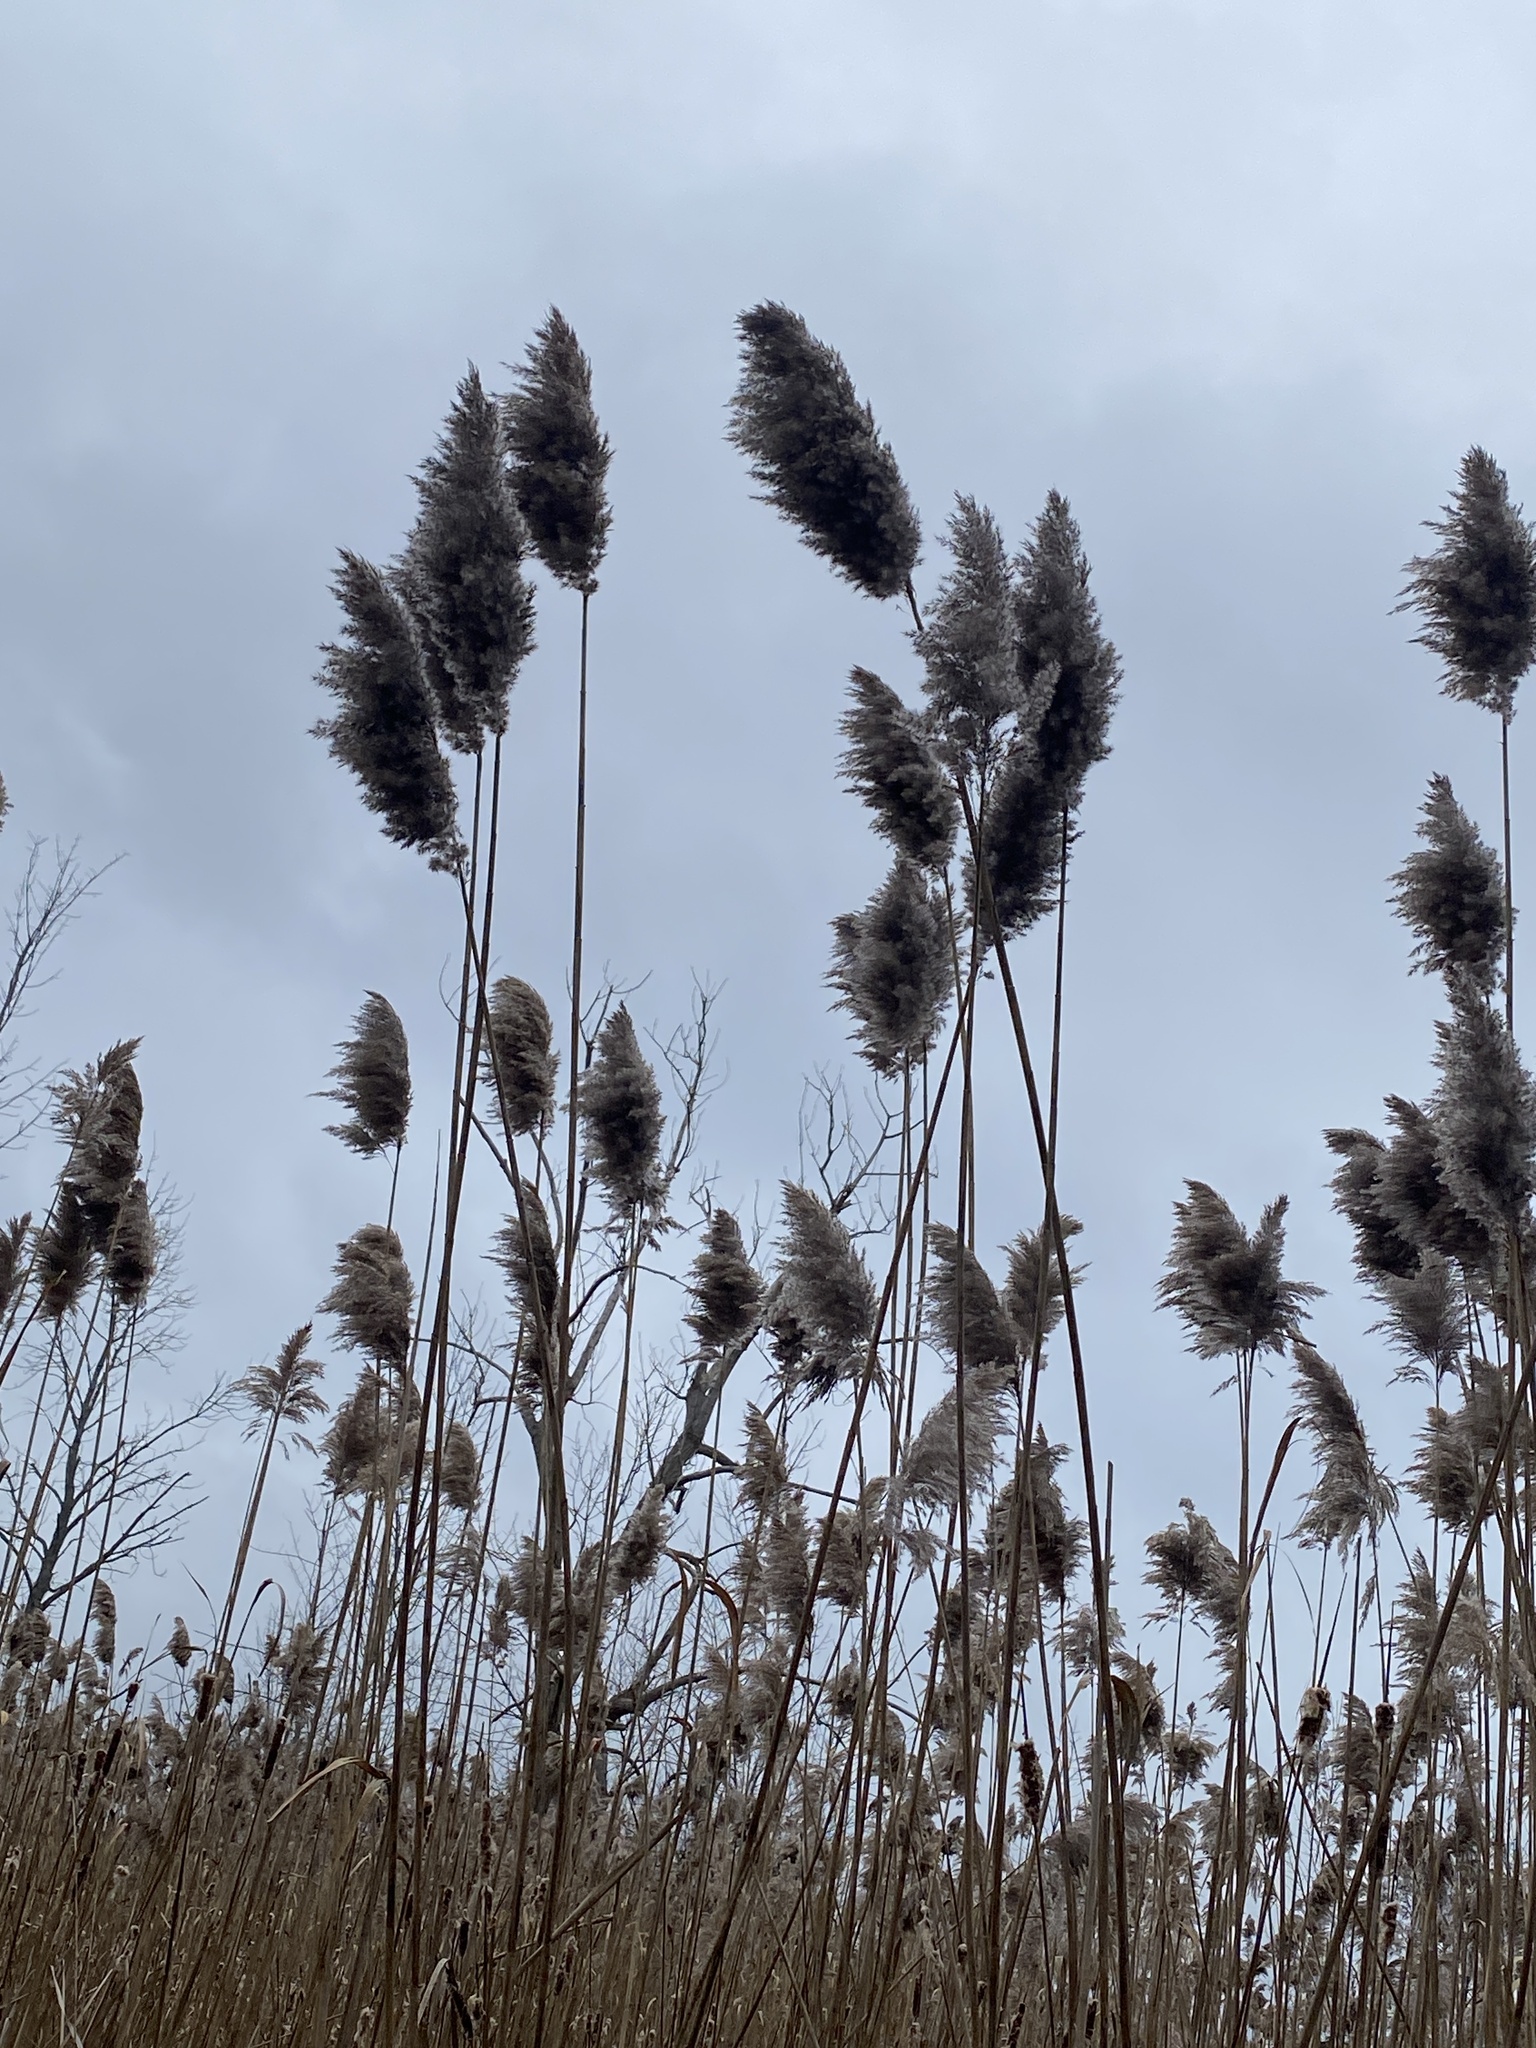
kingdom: Plantae
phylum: Tracheophyta
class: Liliopsida
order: Poales
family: Poaceae
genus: Phragmites
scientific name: Phragmites australis
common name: Common reed
